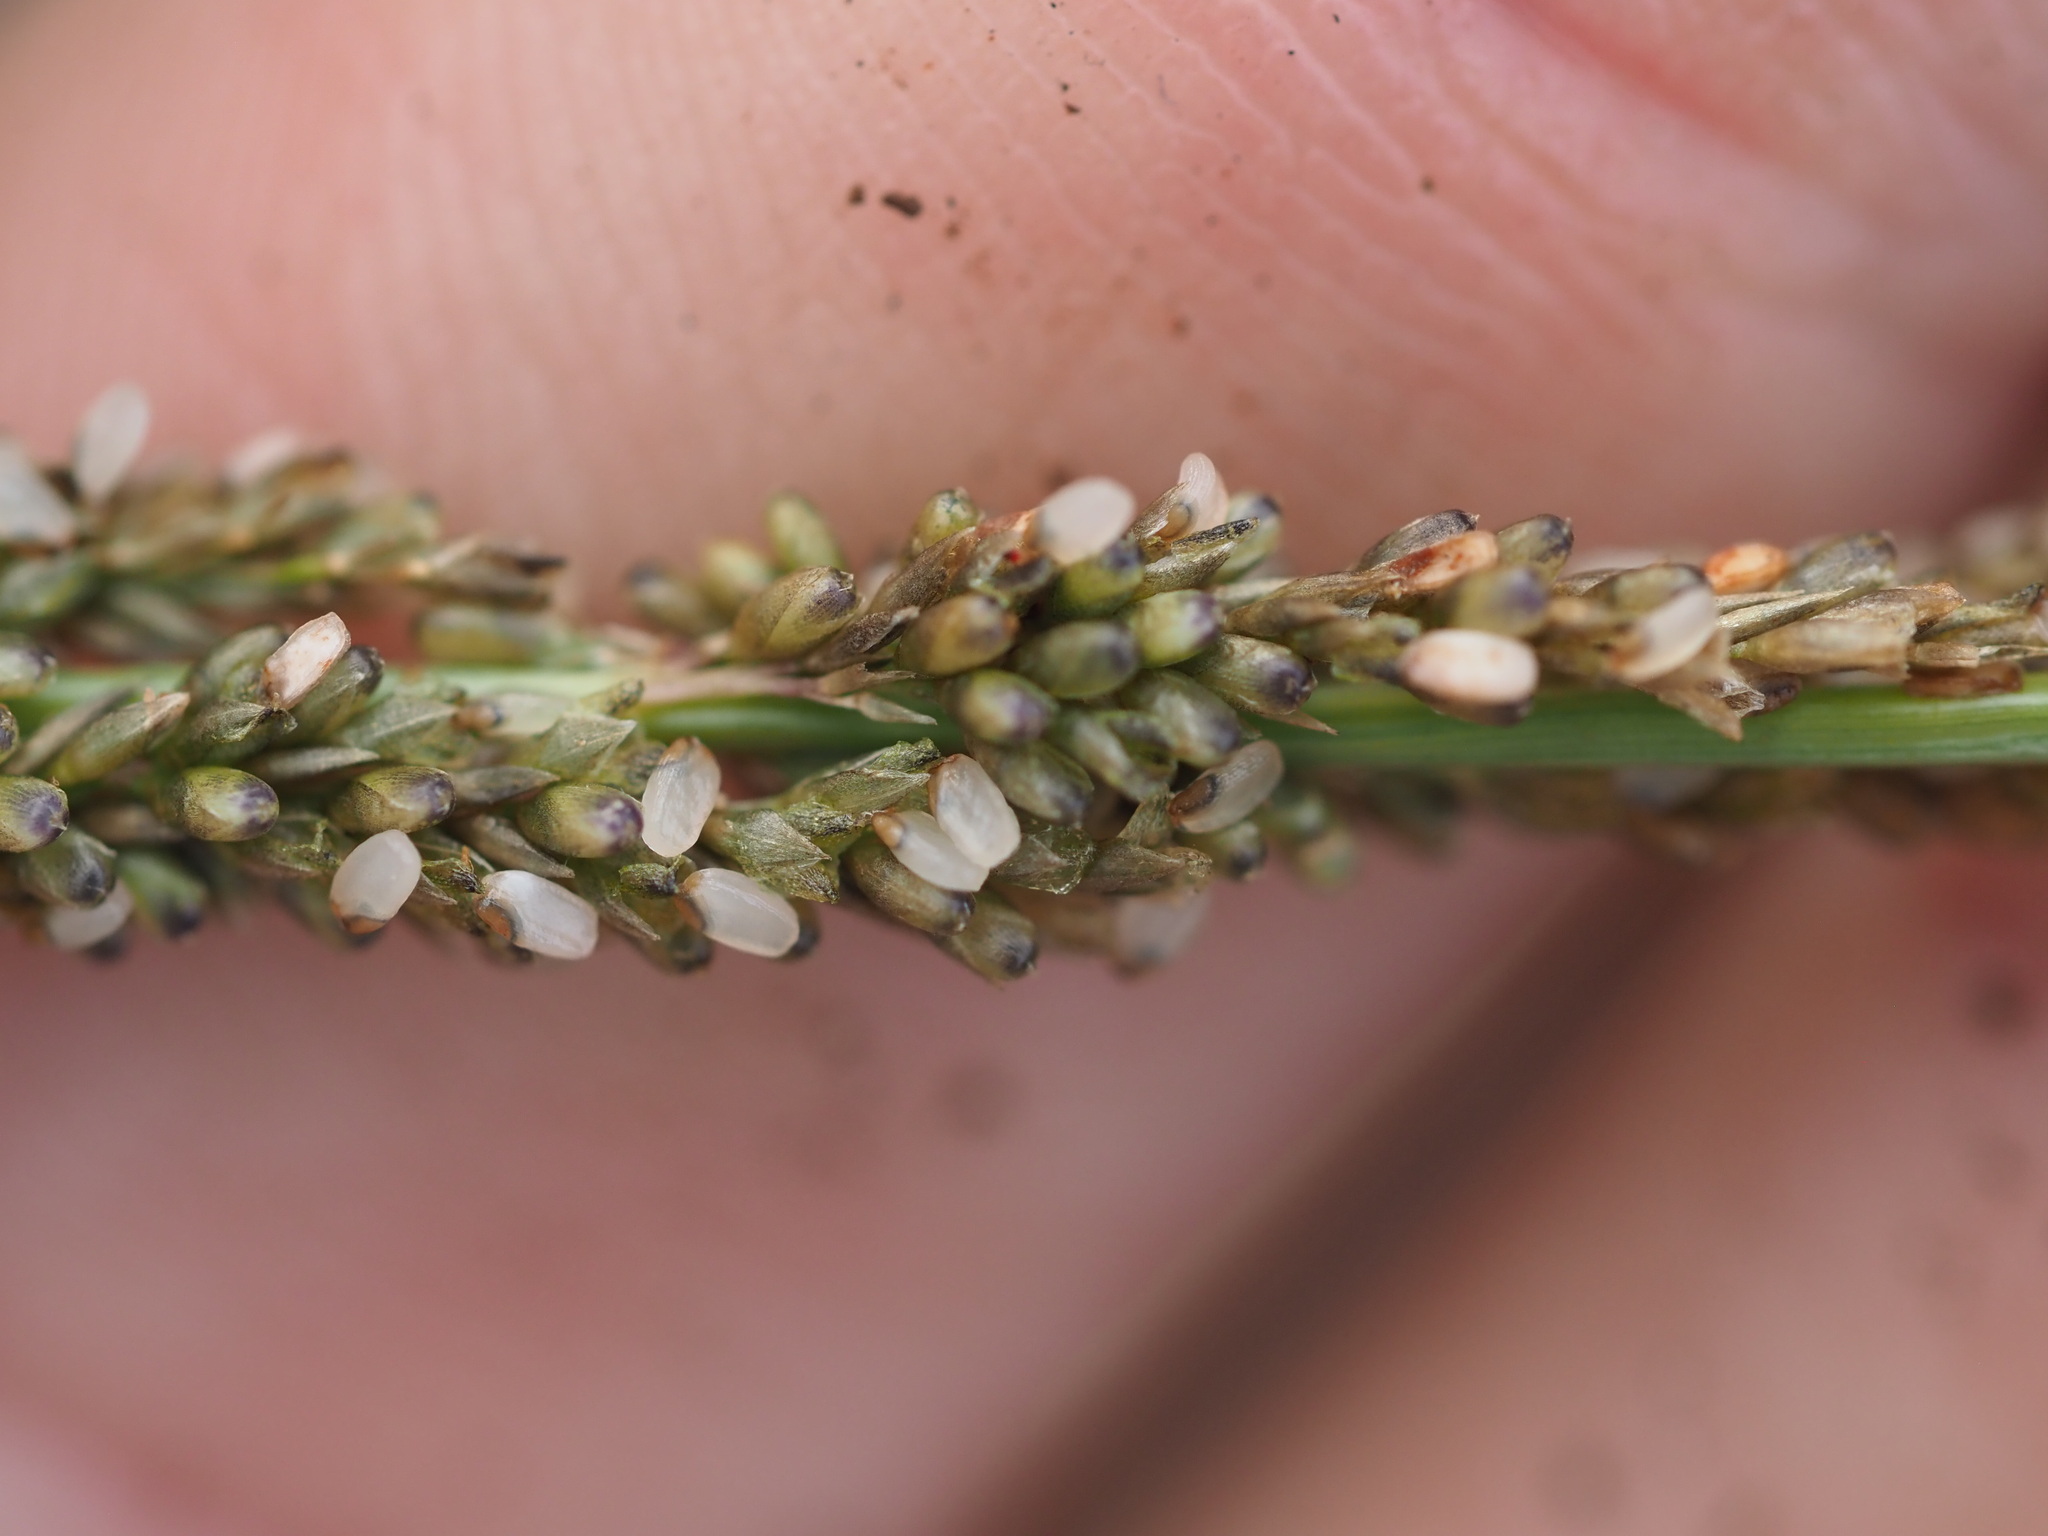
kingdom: Plantae
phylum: Tracheophyta
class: Liliopsida
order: Poales
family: Poaceae
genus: Sporobolus
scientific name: Sporobolus indicus
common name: Smut grass
